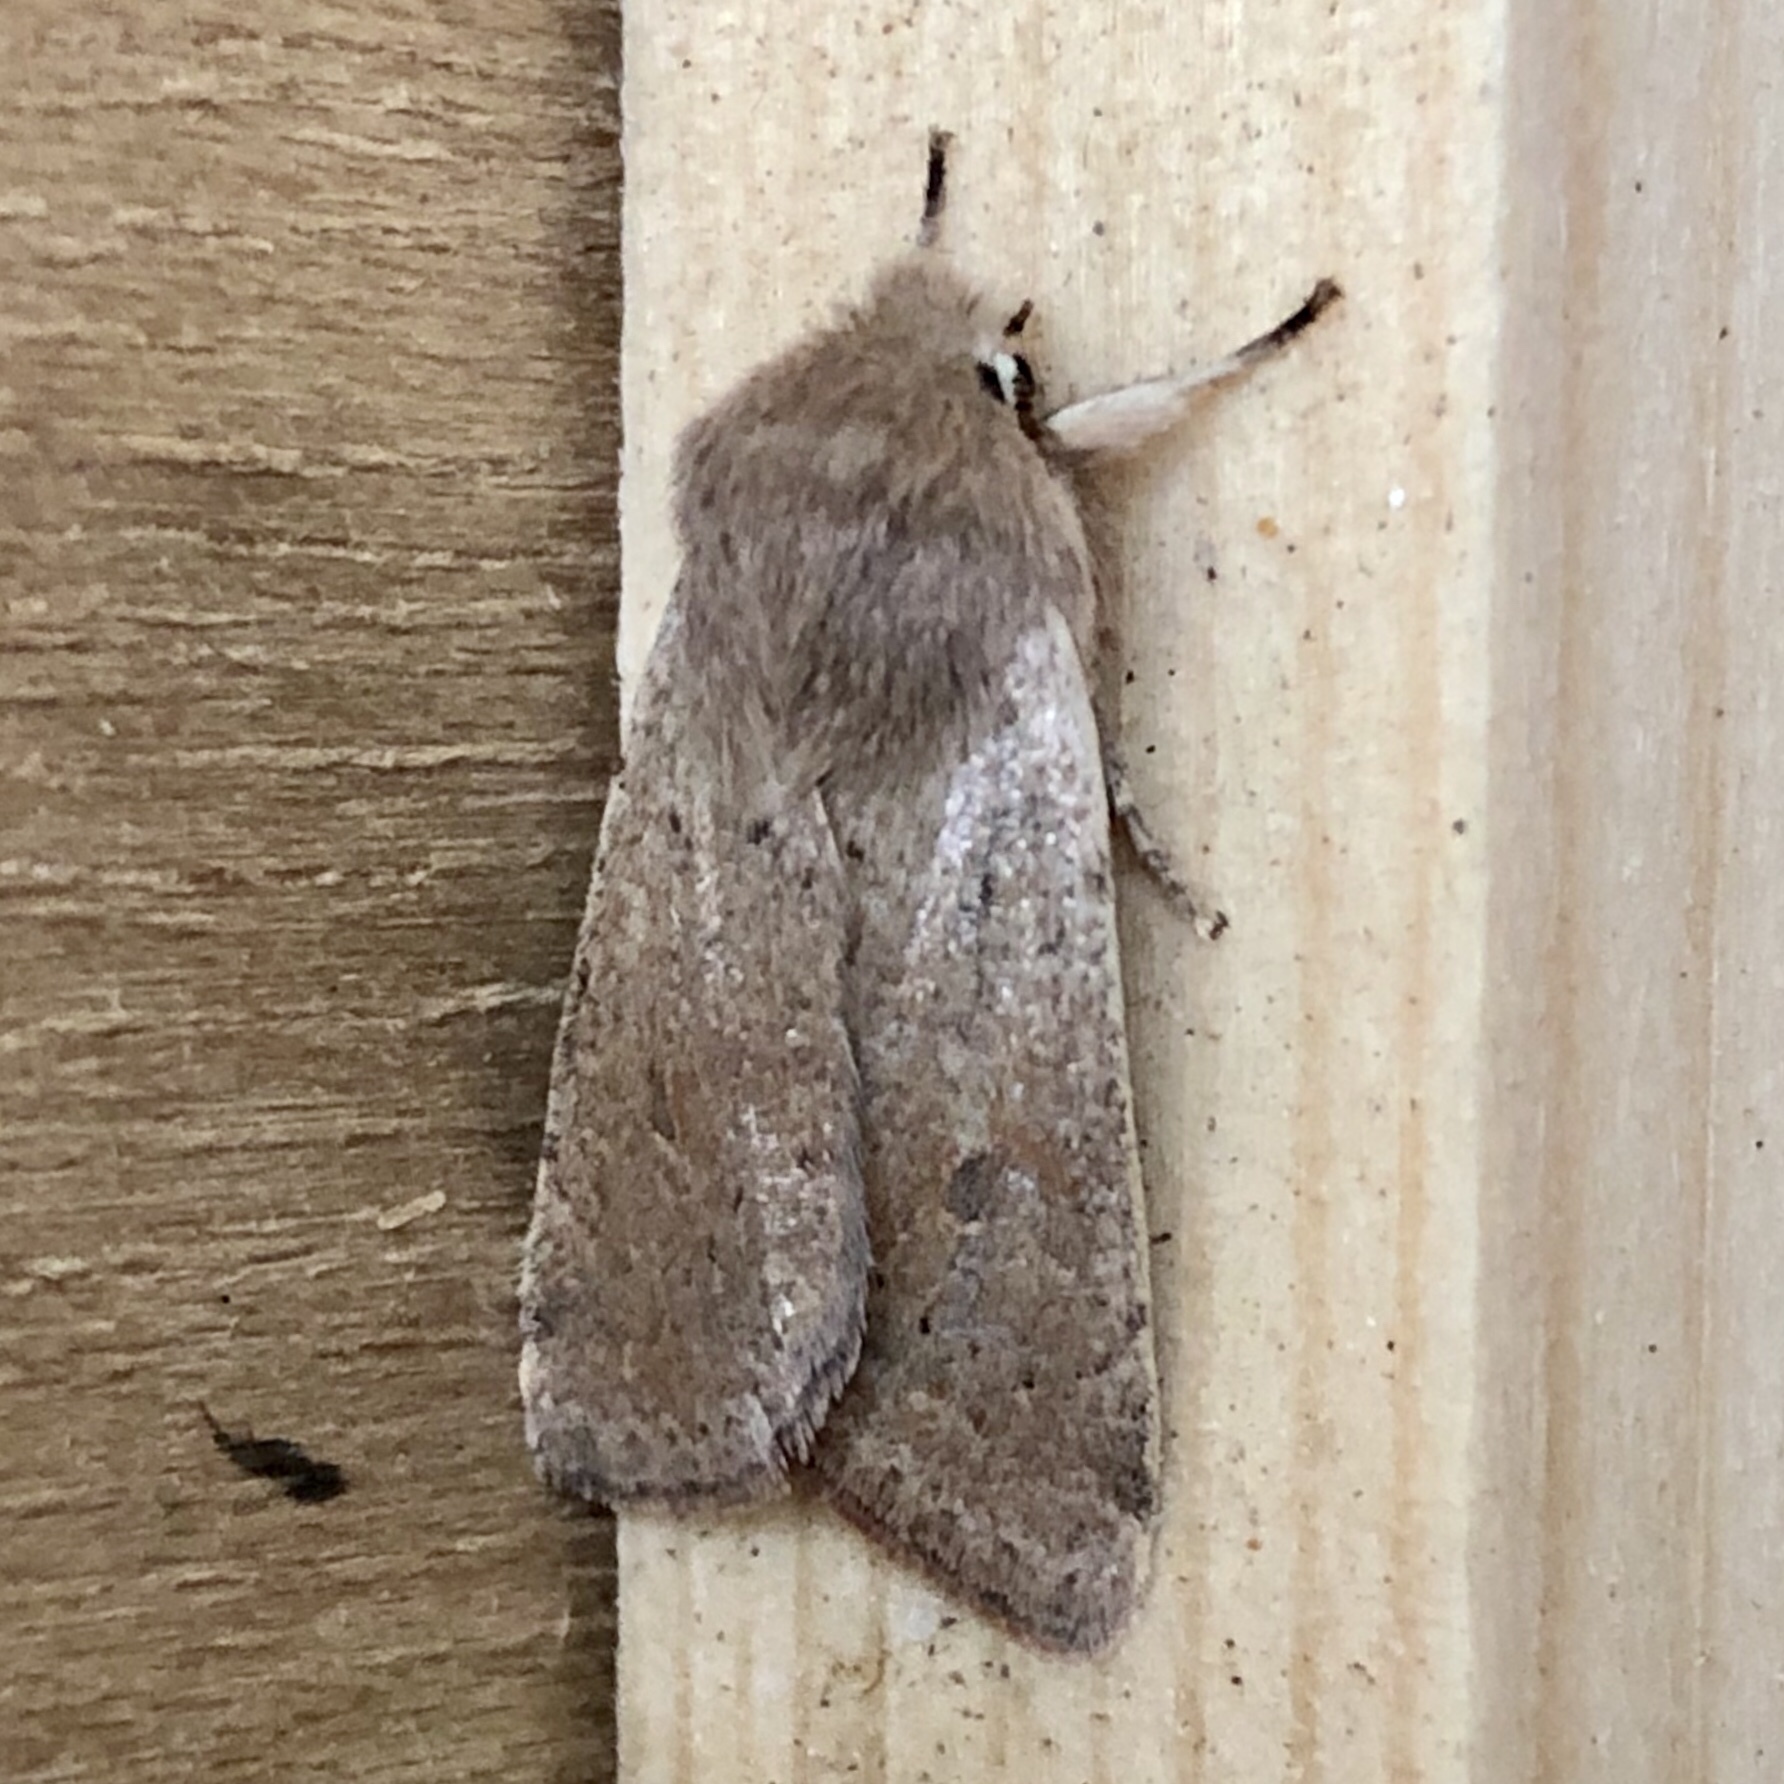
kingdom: Animalia
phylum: Arthropoda
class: Insecta
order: Lepidoptera
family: Noctuidae
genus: Orthosia
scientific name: Orthosia cruda
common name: Small quaker
